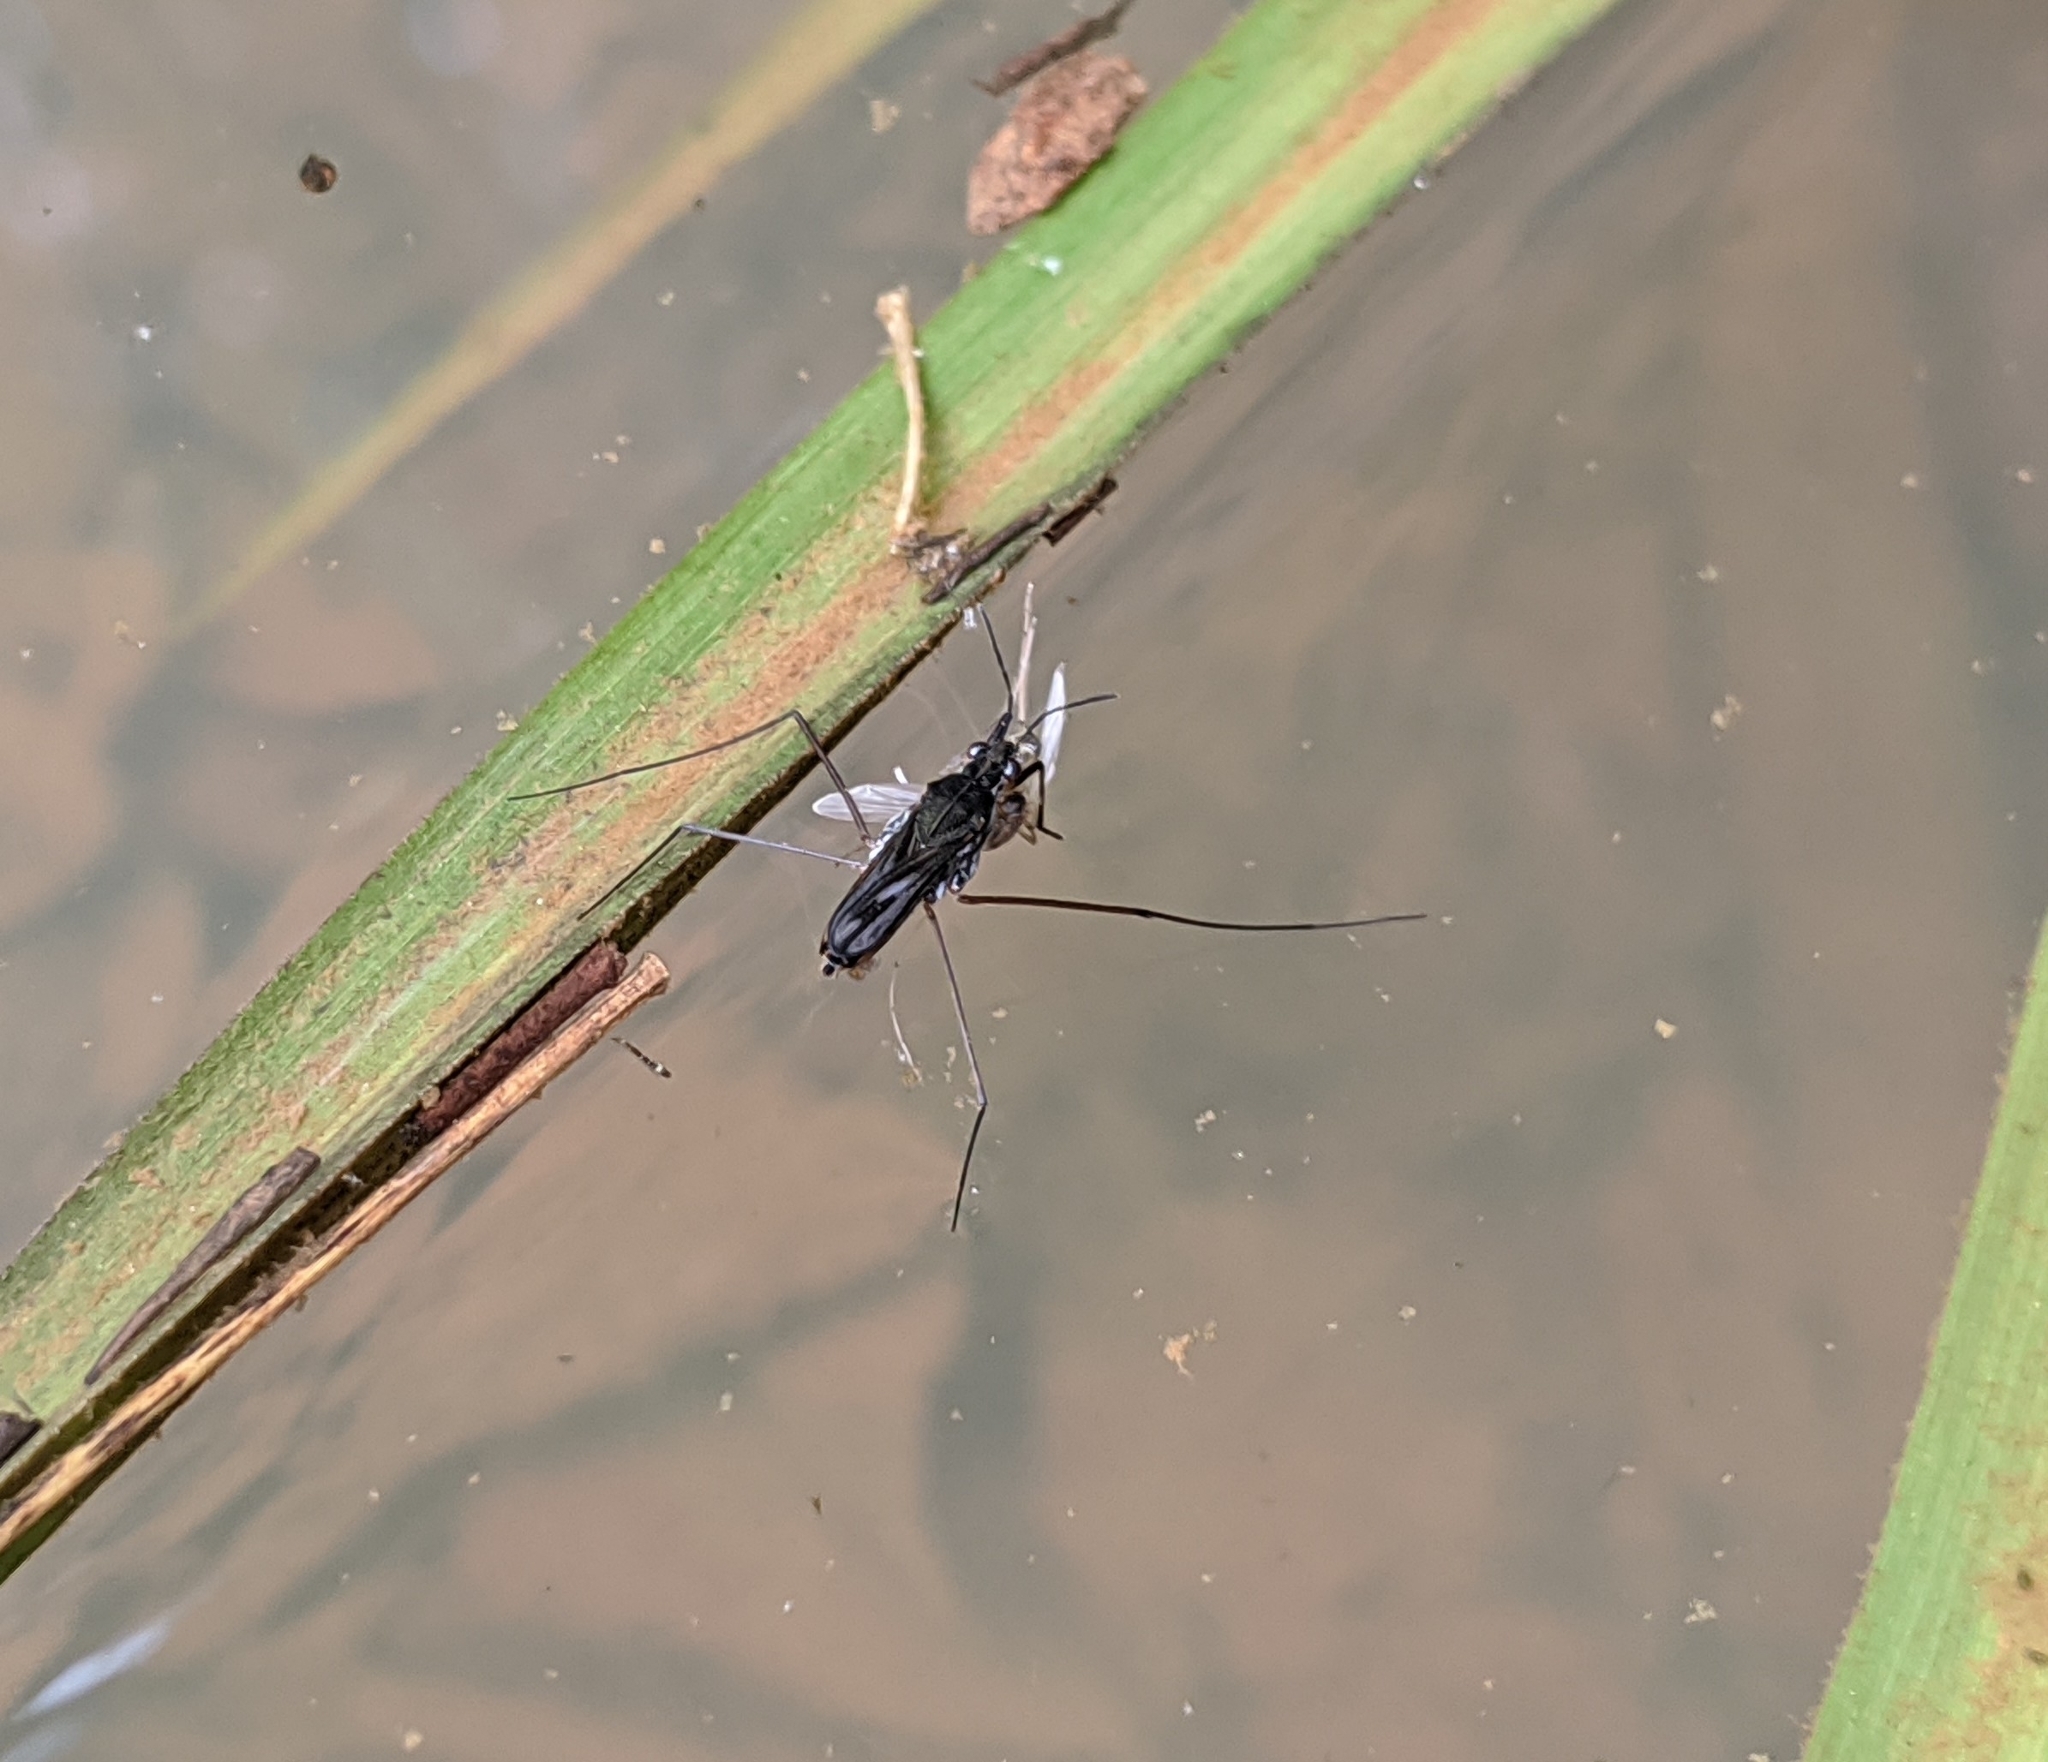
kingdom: Animalia
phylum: Arthropoda
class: Insecta
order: Hemiptera
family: Gerridae
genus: Gerris
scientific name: Gerris
